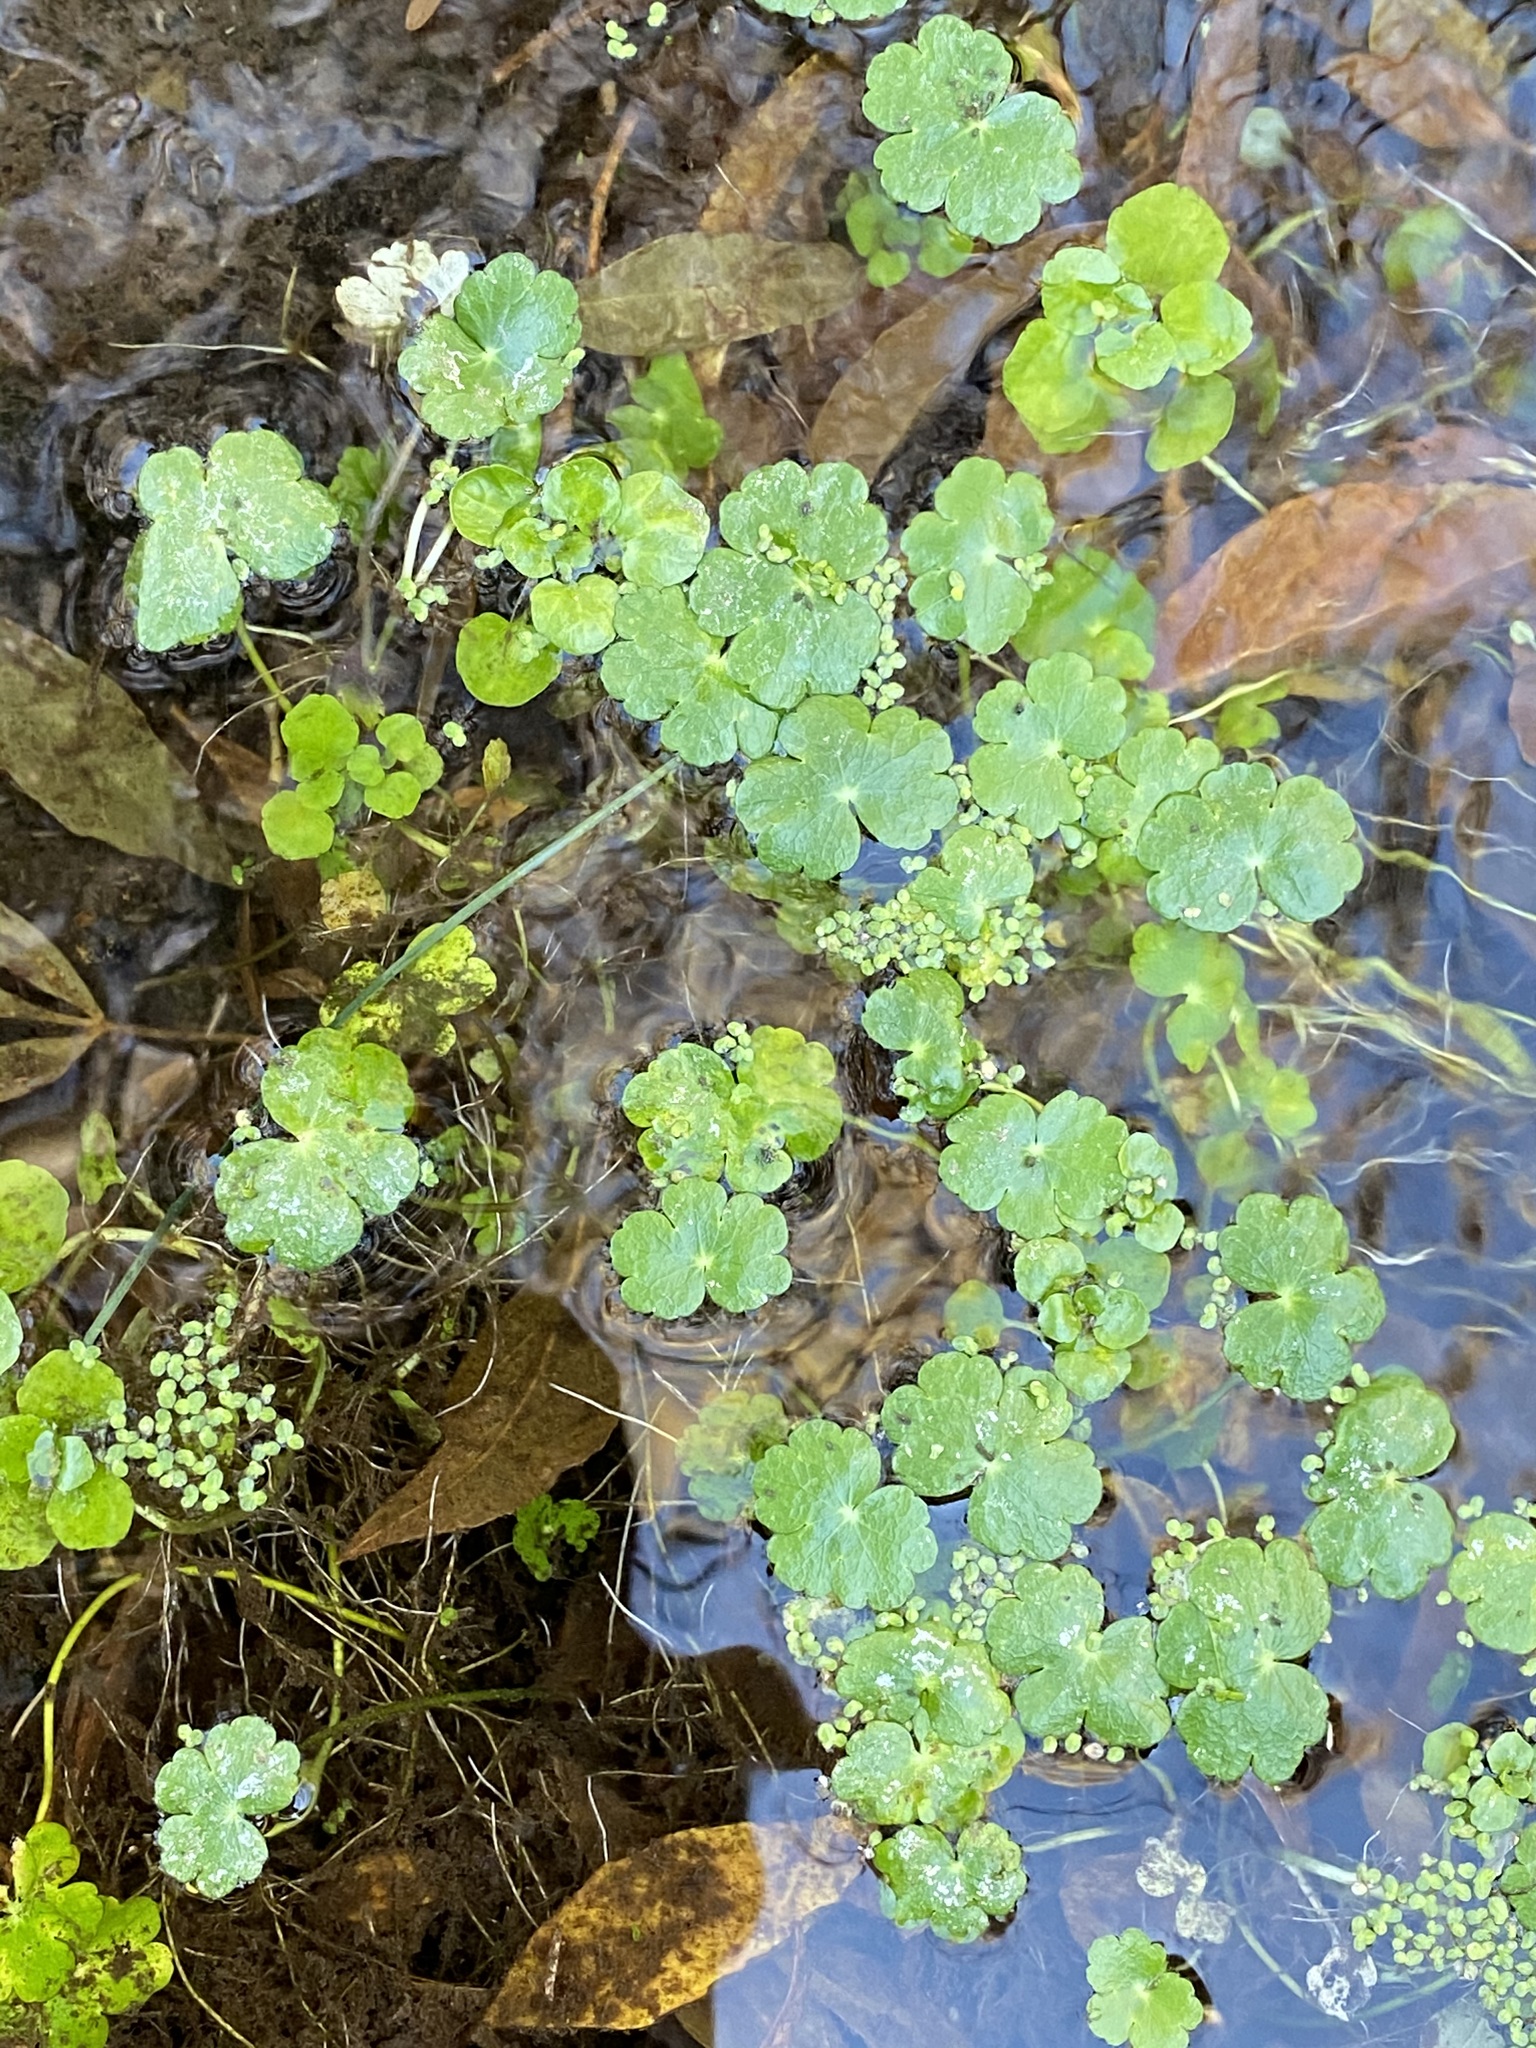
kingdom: Plantae
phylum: Tracheophyta
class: Magnoliopsida
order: Apiales
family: Araliaceae
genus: Hydrocotyle
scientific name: Hydrocotyle ranunculoides
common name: Floating pennywort
